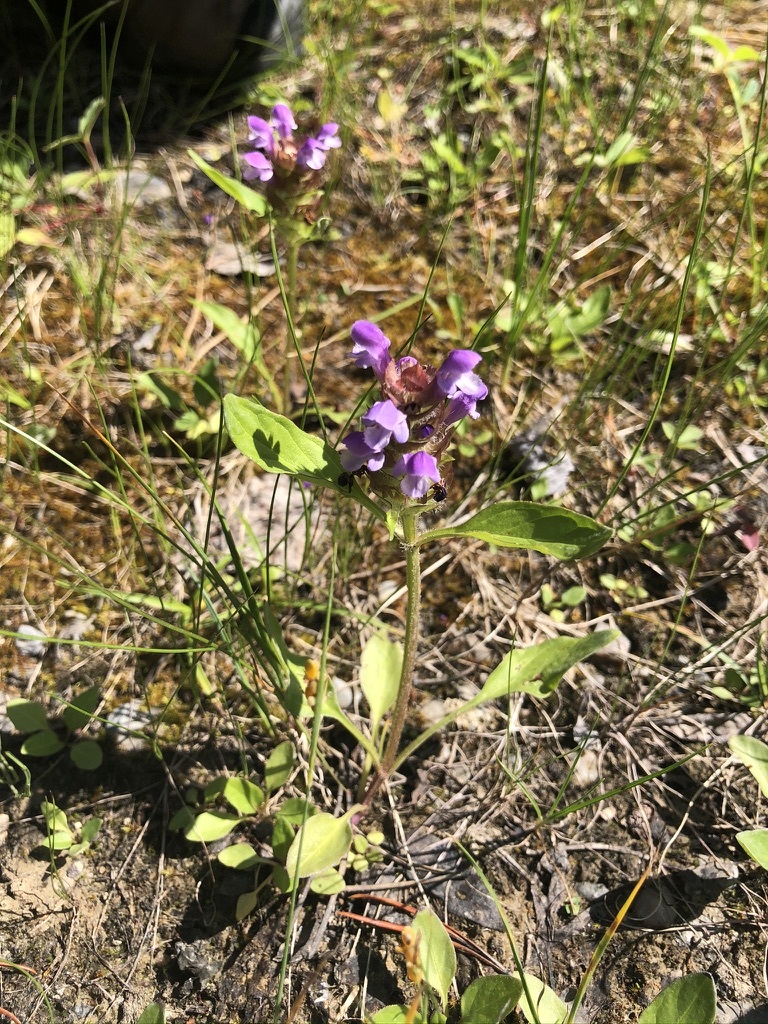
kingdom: Plantae
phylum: Tracheophyta
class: Magnoliopsida
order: Lamiales
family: Lamiaceae
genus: Prunella
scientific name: Prunella vulgaris
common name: Heal-all
